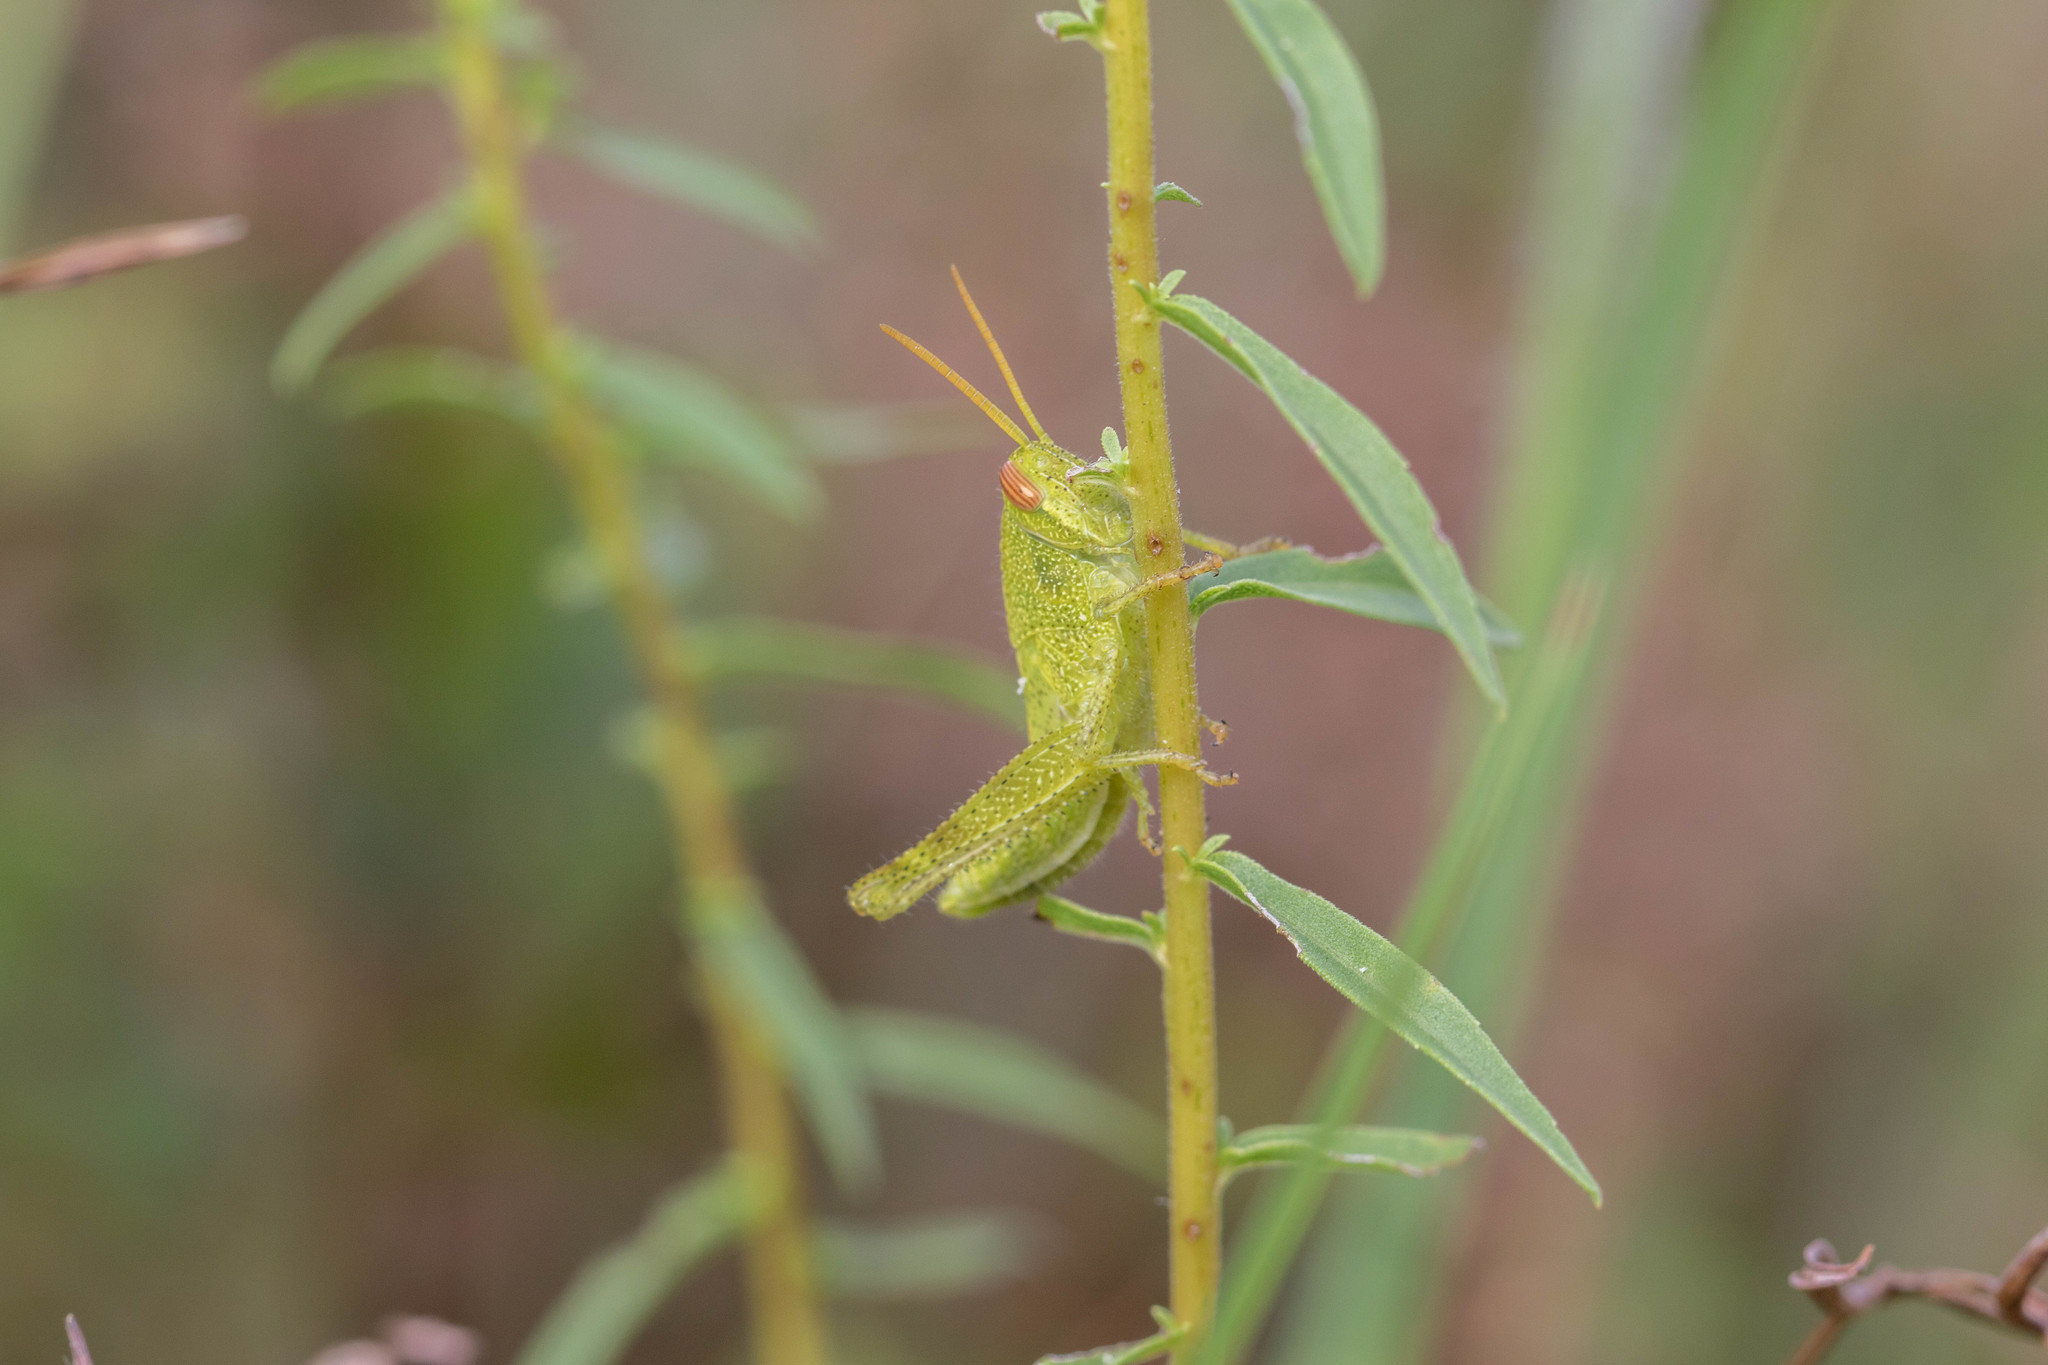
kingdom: Animalia
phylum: Arthropoda
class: Insecta
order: Orthoptera
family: Acrididae
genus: Schistocerca
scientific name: Schistocerca damnifica
